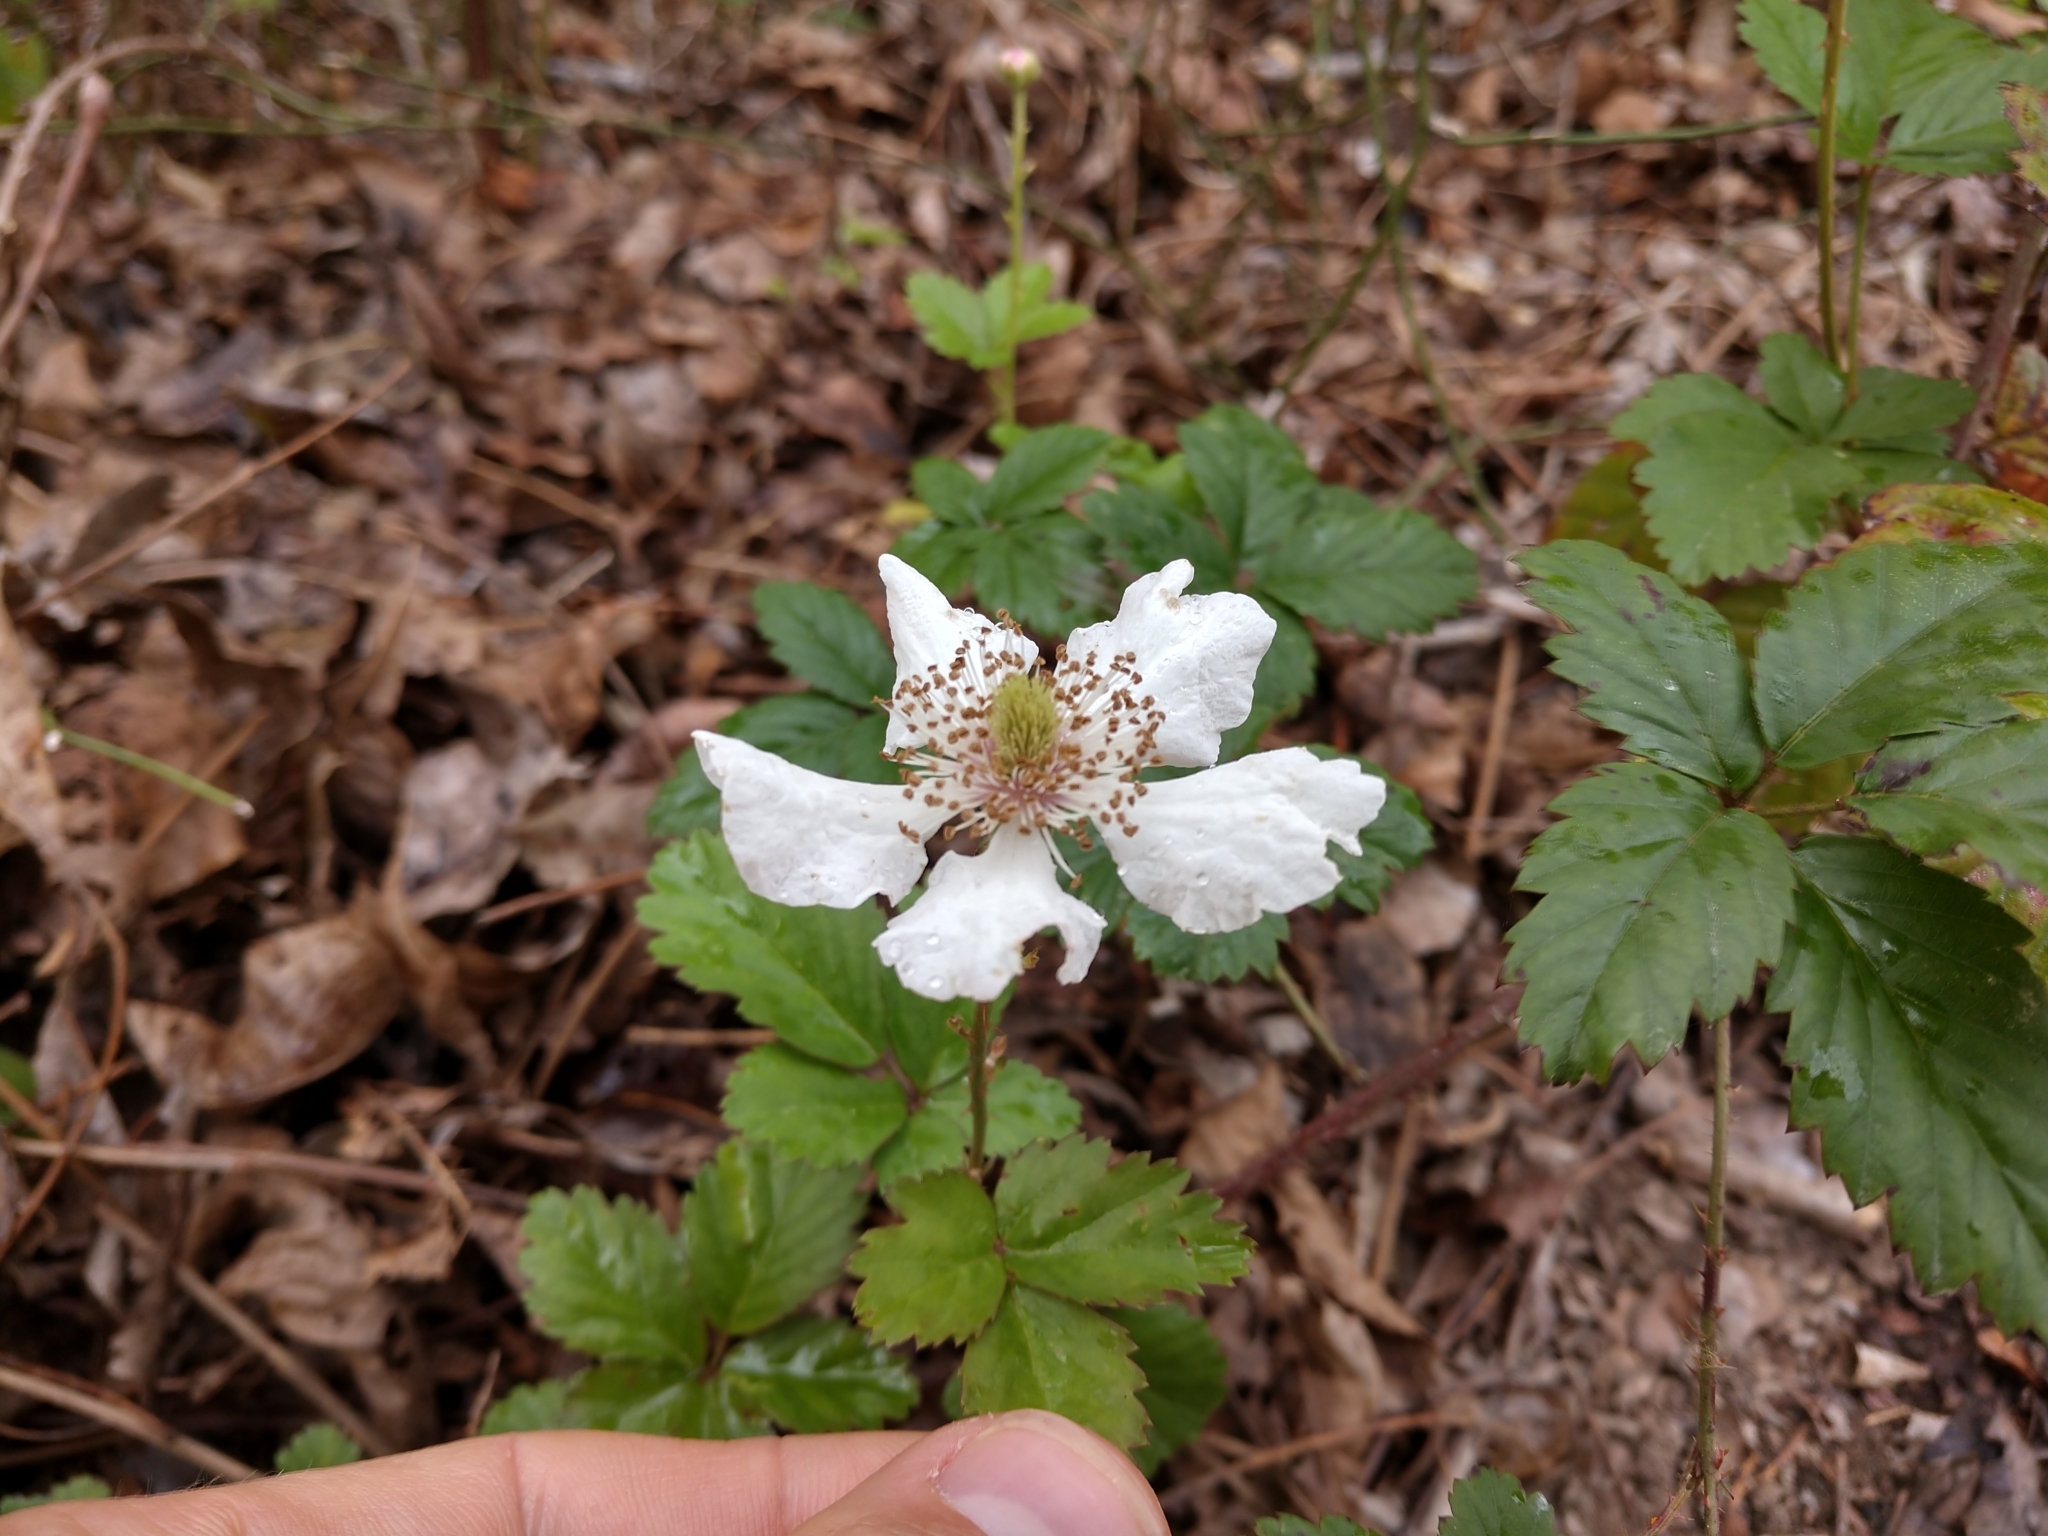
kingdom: Plantae
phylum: Tracheophyta
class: Magnoliopsida
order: Rosales
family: Rosaceae
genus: Rubus
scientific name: Rubus trivialis
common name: Southern dewberry
